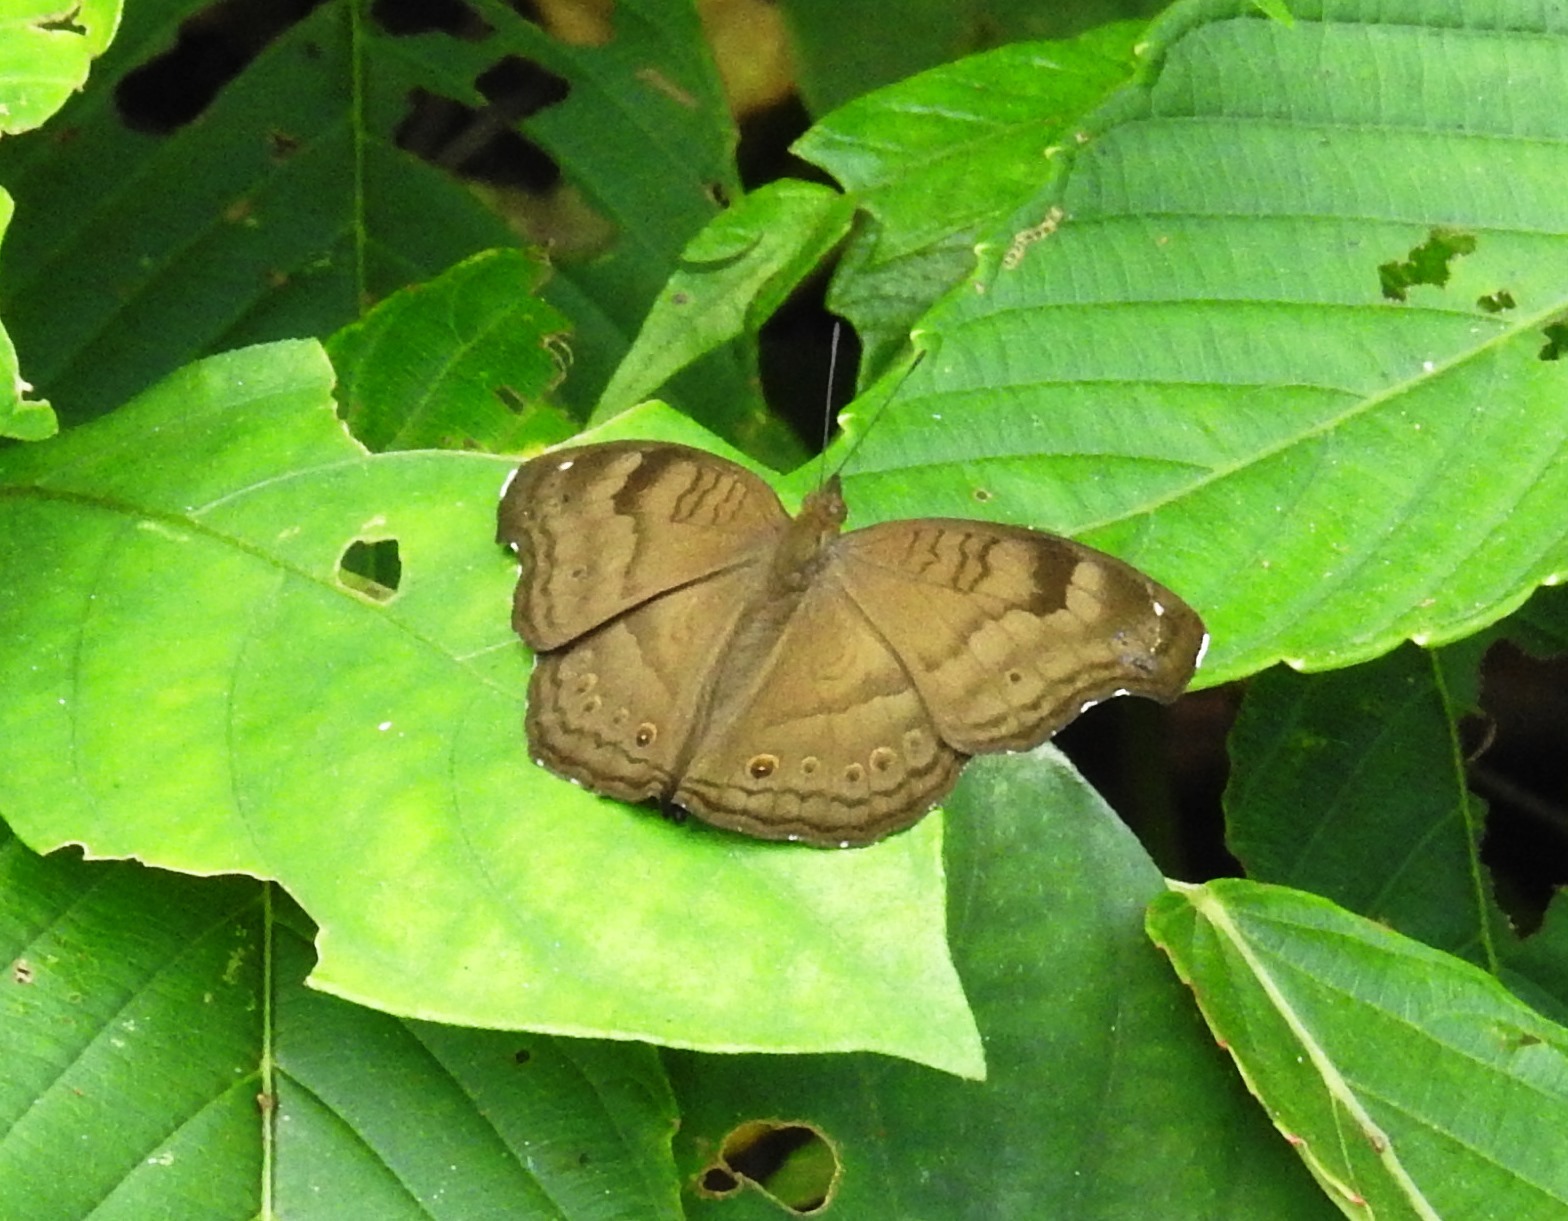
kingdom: Animalia
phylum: Arthropoda
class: Insecta
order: Lepidoptera
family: Nymphalidae
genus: Junonia
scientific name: Junonia iphita
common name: Chocolate pansy
